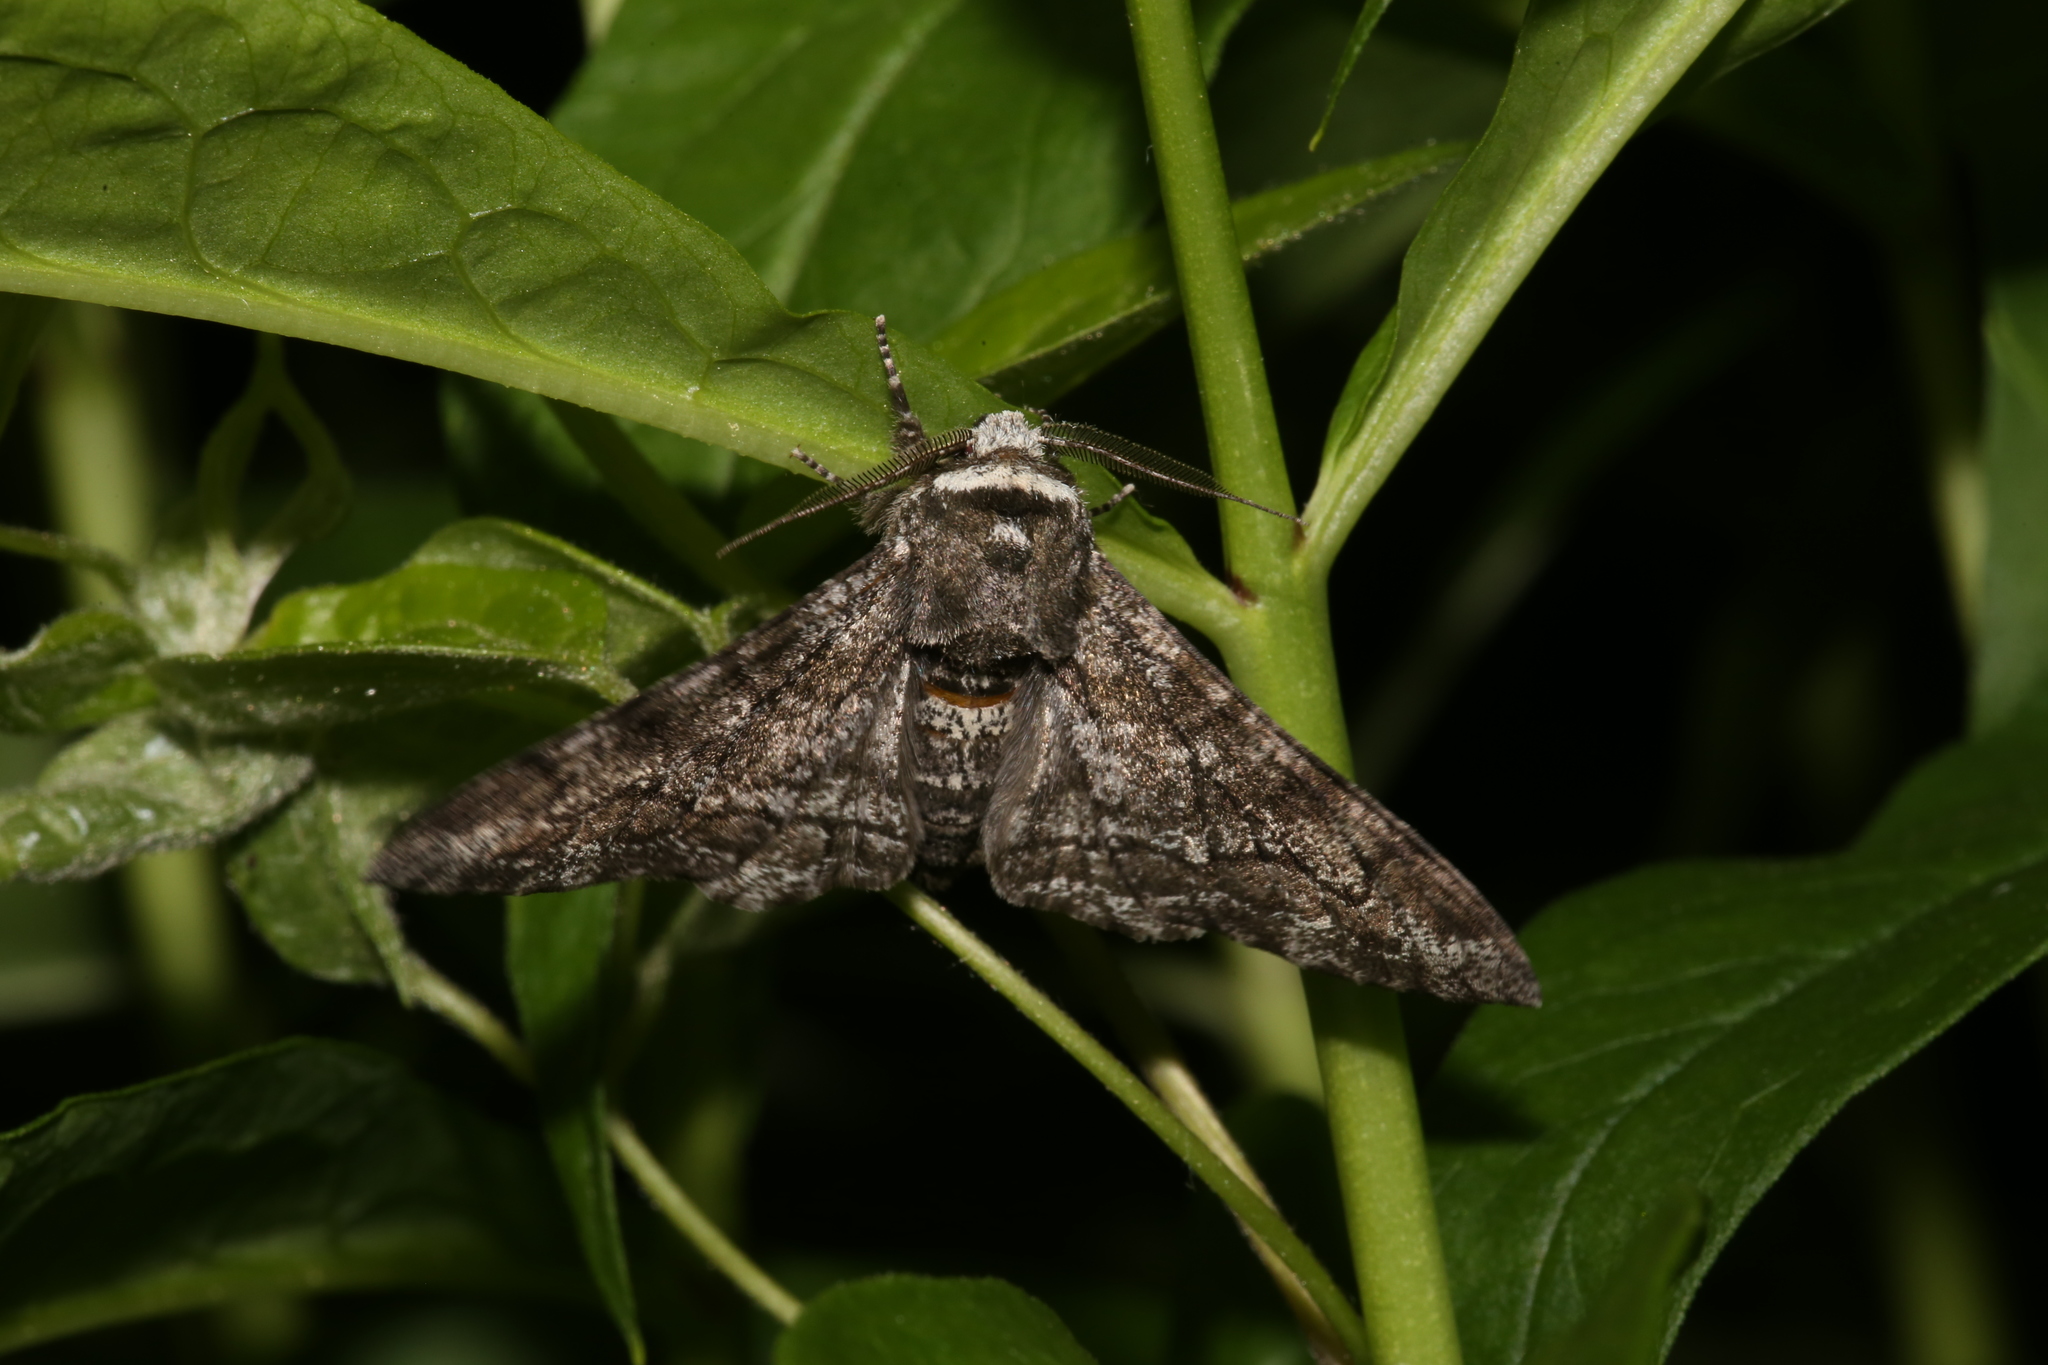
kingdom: Animalia
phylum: Arthropoda
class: Insecta
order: Lepidoptera
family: Geometridae
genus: Biston
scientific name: Biston betularia
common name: Peppered moth
